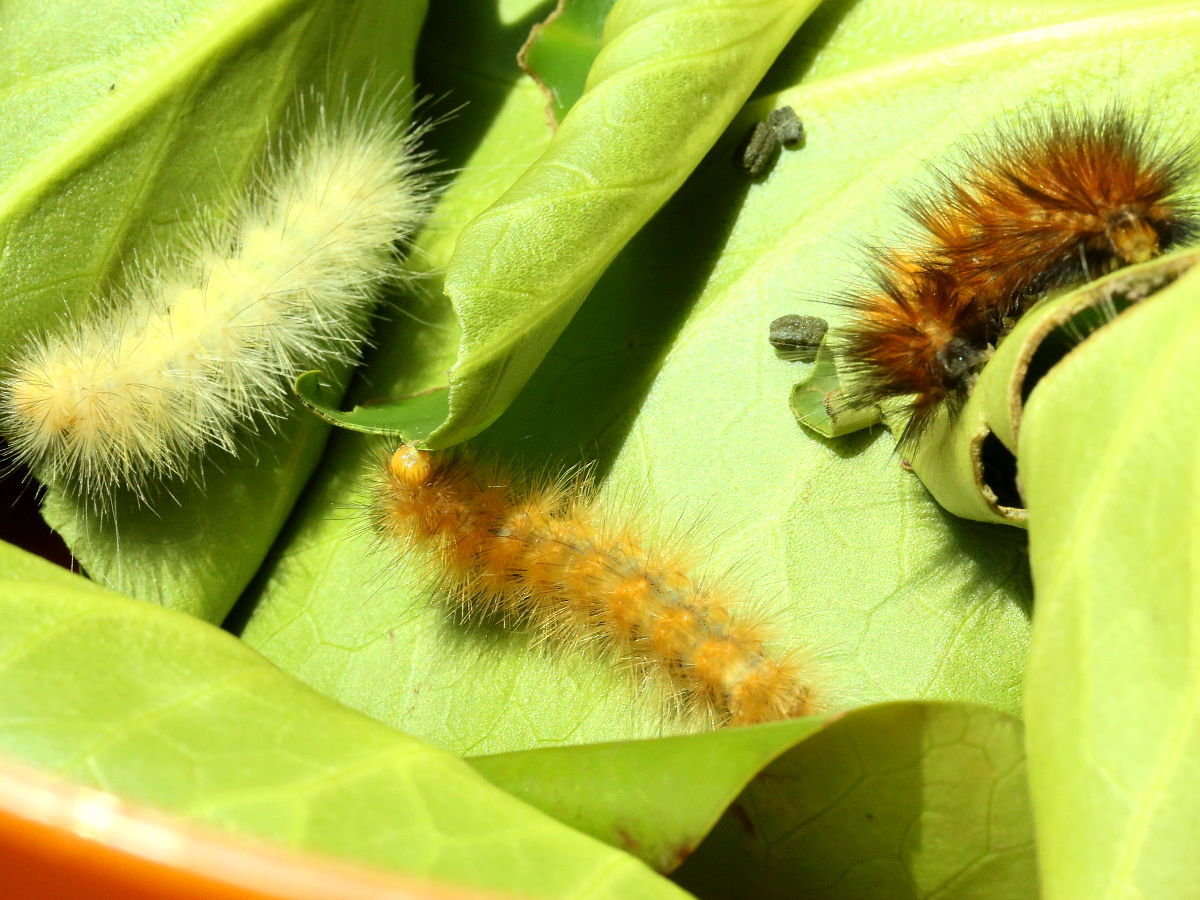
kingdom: Animalia
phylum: Arthropoda
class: Insecta
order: Lepidoptera
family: Erebidae
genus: Spilosoma
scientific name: Spilosoma virginica
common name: Virginia tiger moth
